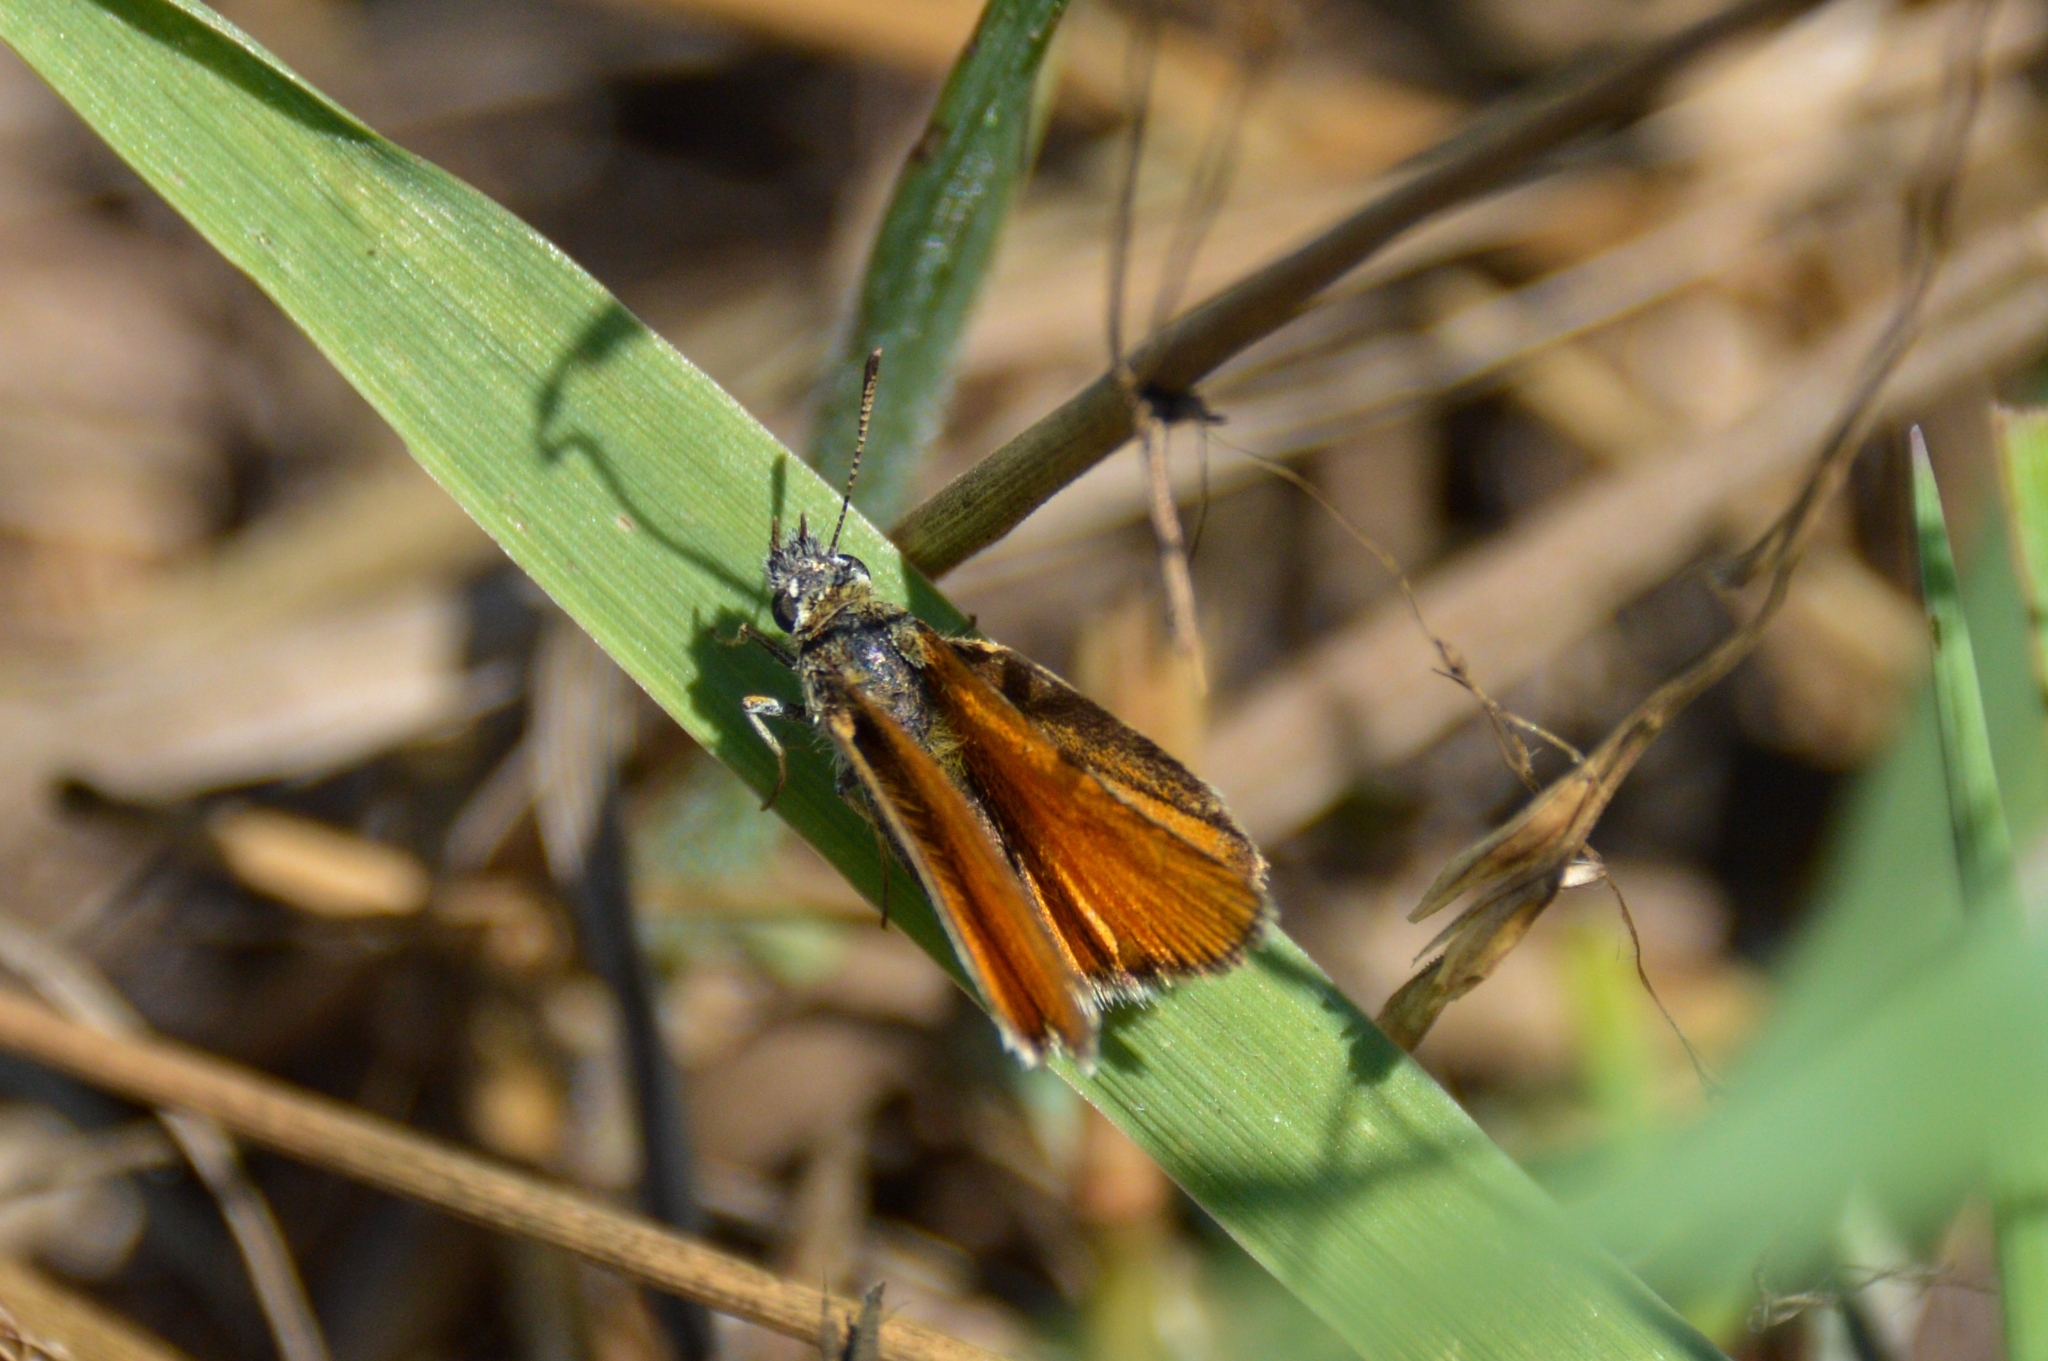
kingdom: Animalia
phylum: Arthropoda
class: Insecta
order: Lepidoptera
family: Hesperiidae
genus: Thymelicus
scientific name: Thymelicus lineola
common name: Essex skipper
